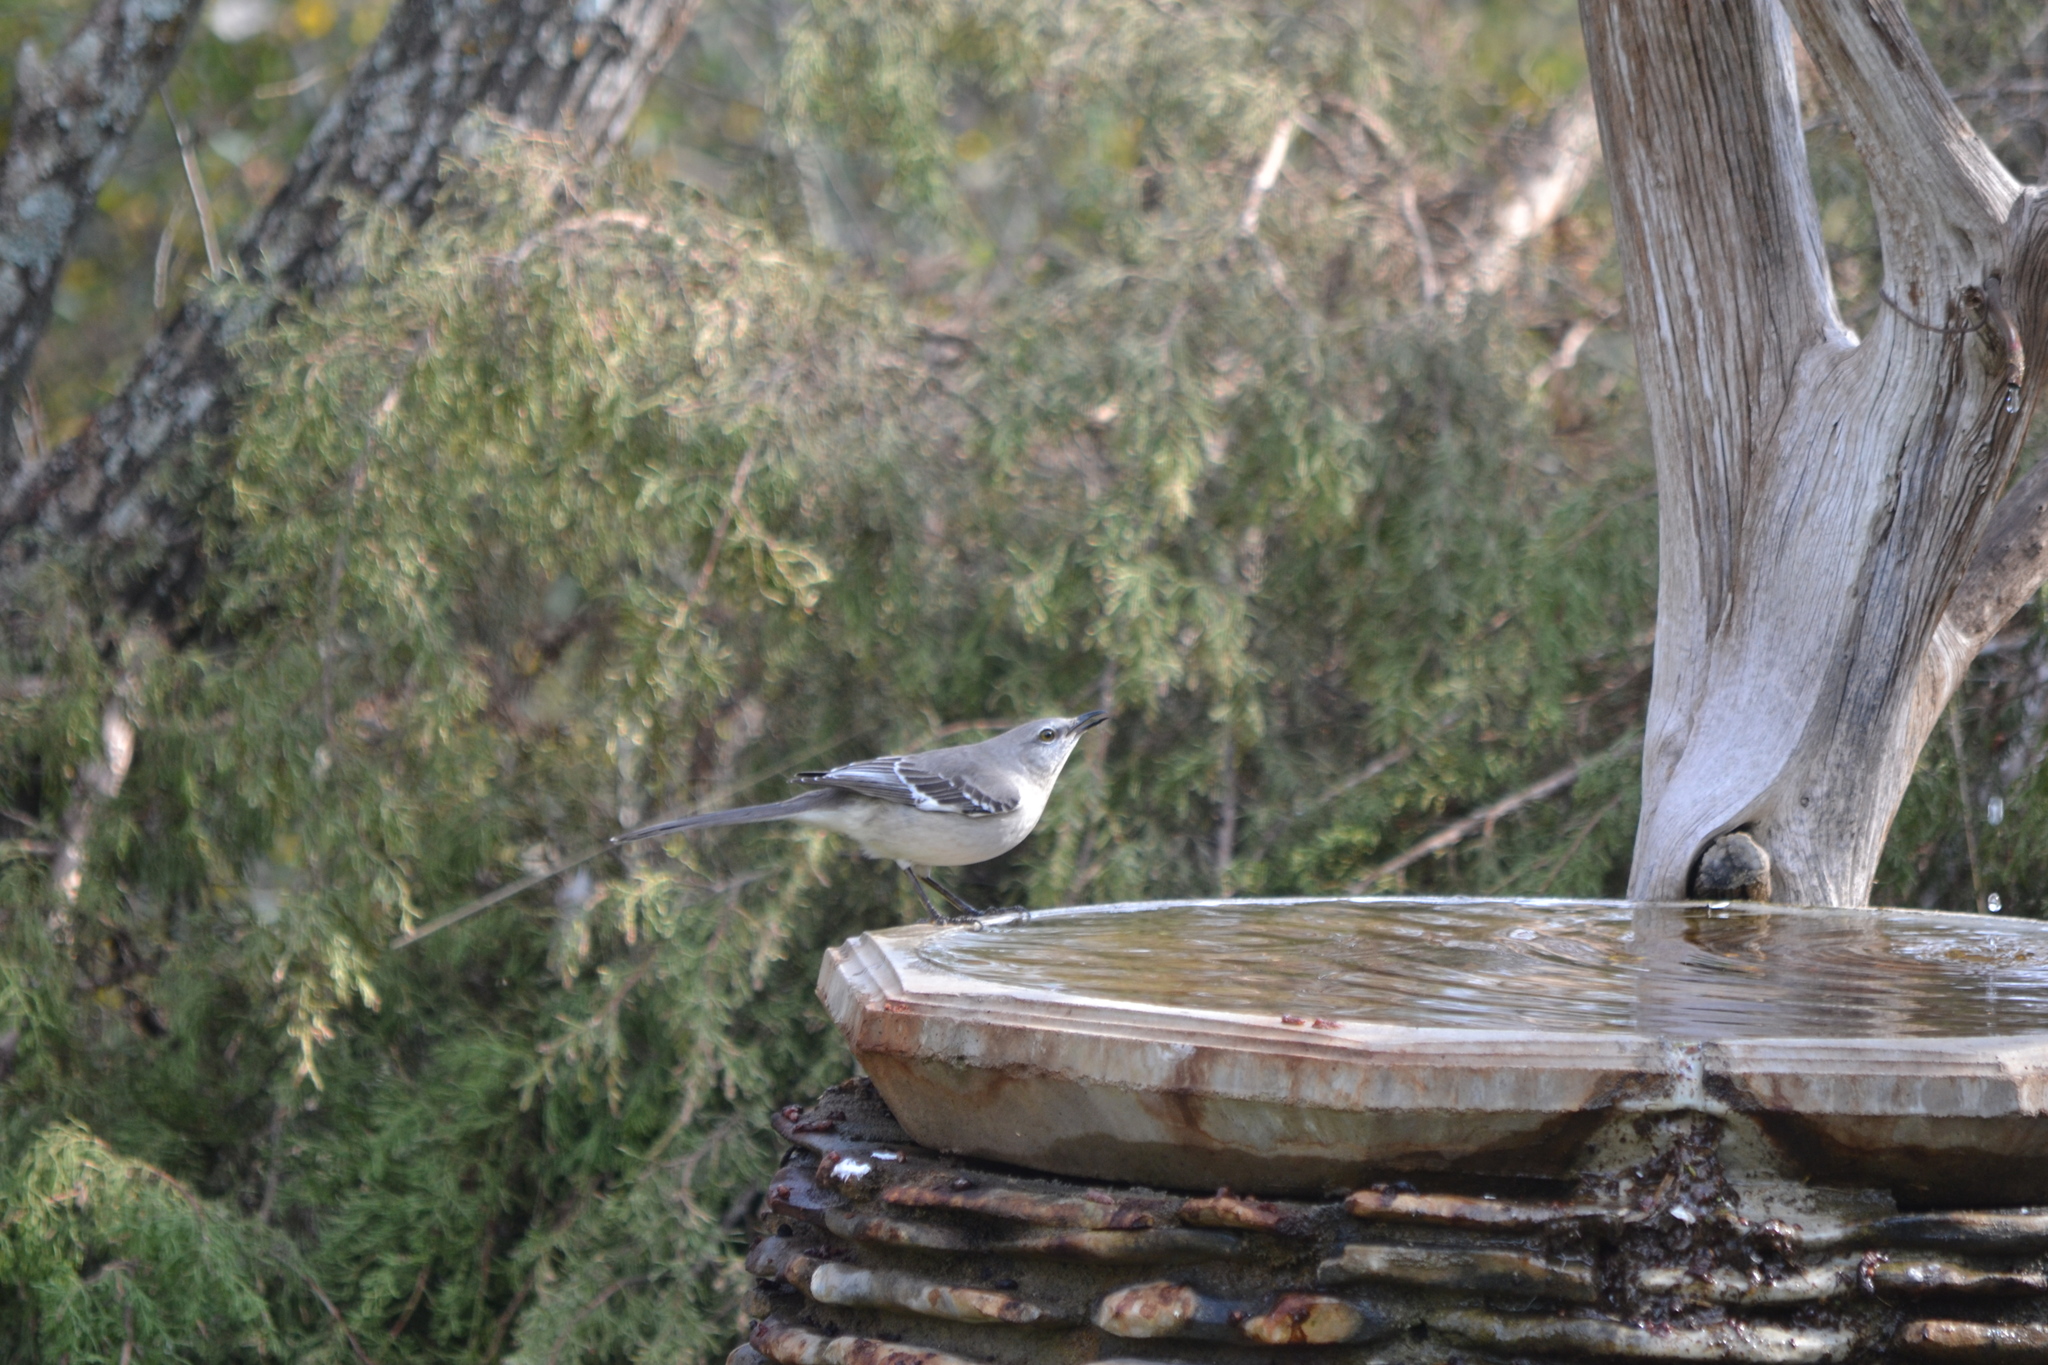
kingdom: Animalia
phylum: Chordata
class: Aves
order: Passeriformes
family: Mimidae
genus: Mimus
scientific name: Mimus polyglottos
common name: Northern mockingbird
